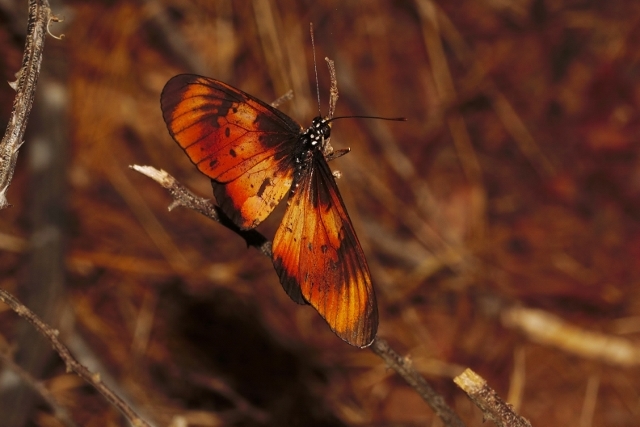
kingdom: Animalia
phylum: Arthropoda
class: Insecta
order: Lepidoptera
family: Nymphalidae
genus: Stephenia
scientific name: Stephenia
